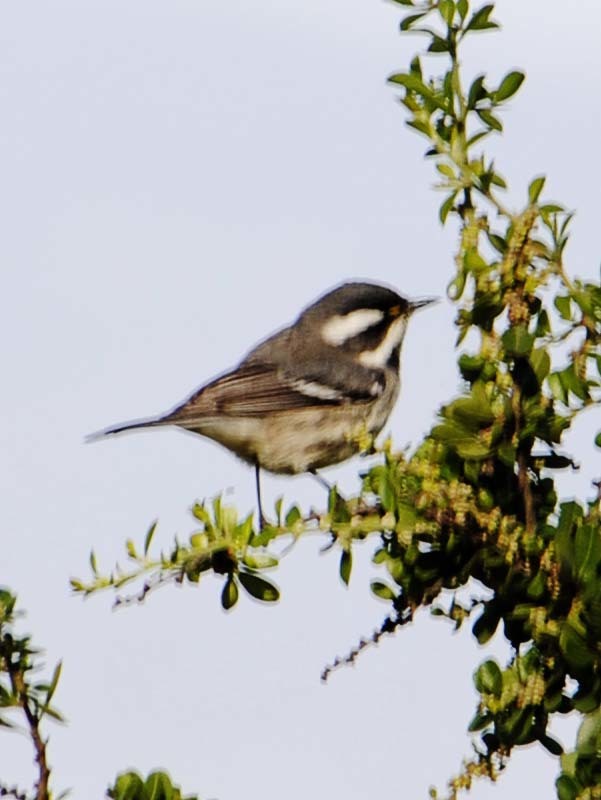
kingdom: Animalia
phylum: Chordata
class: Aves
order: Passeriformes
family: Parulidae
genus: Setophaga
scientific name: Setophaga nigrescens
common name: Black-throated gray warbler
